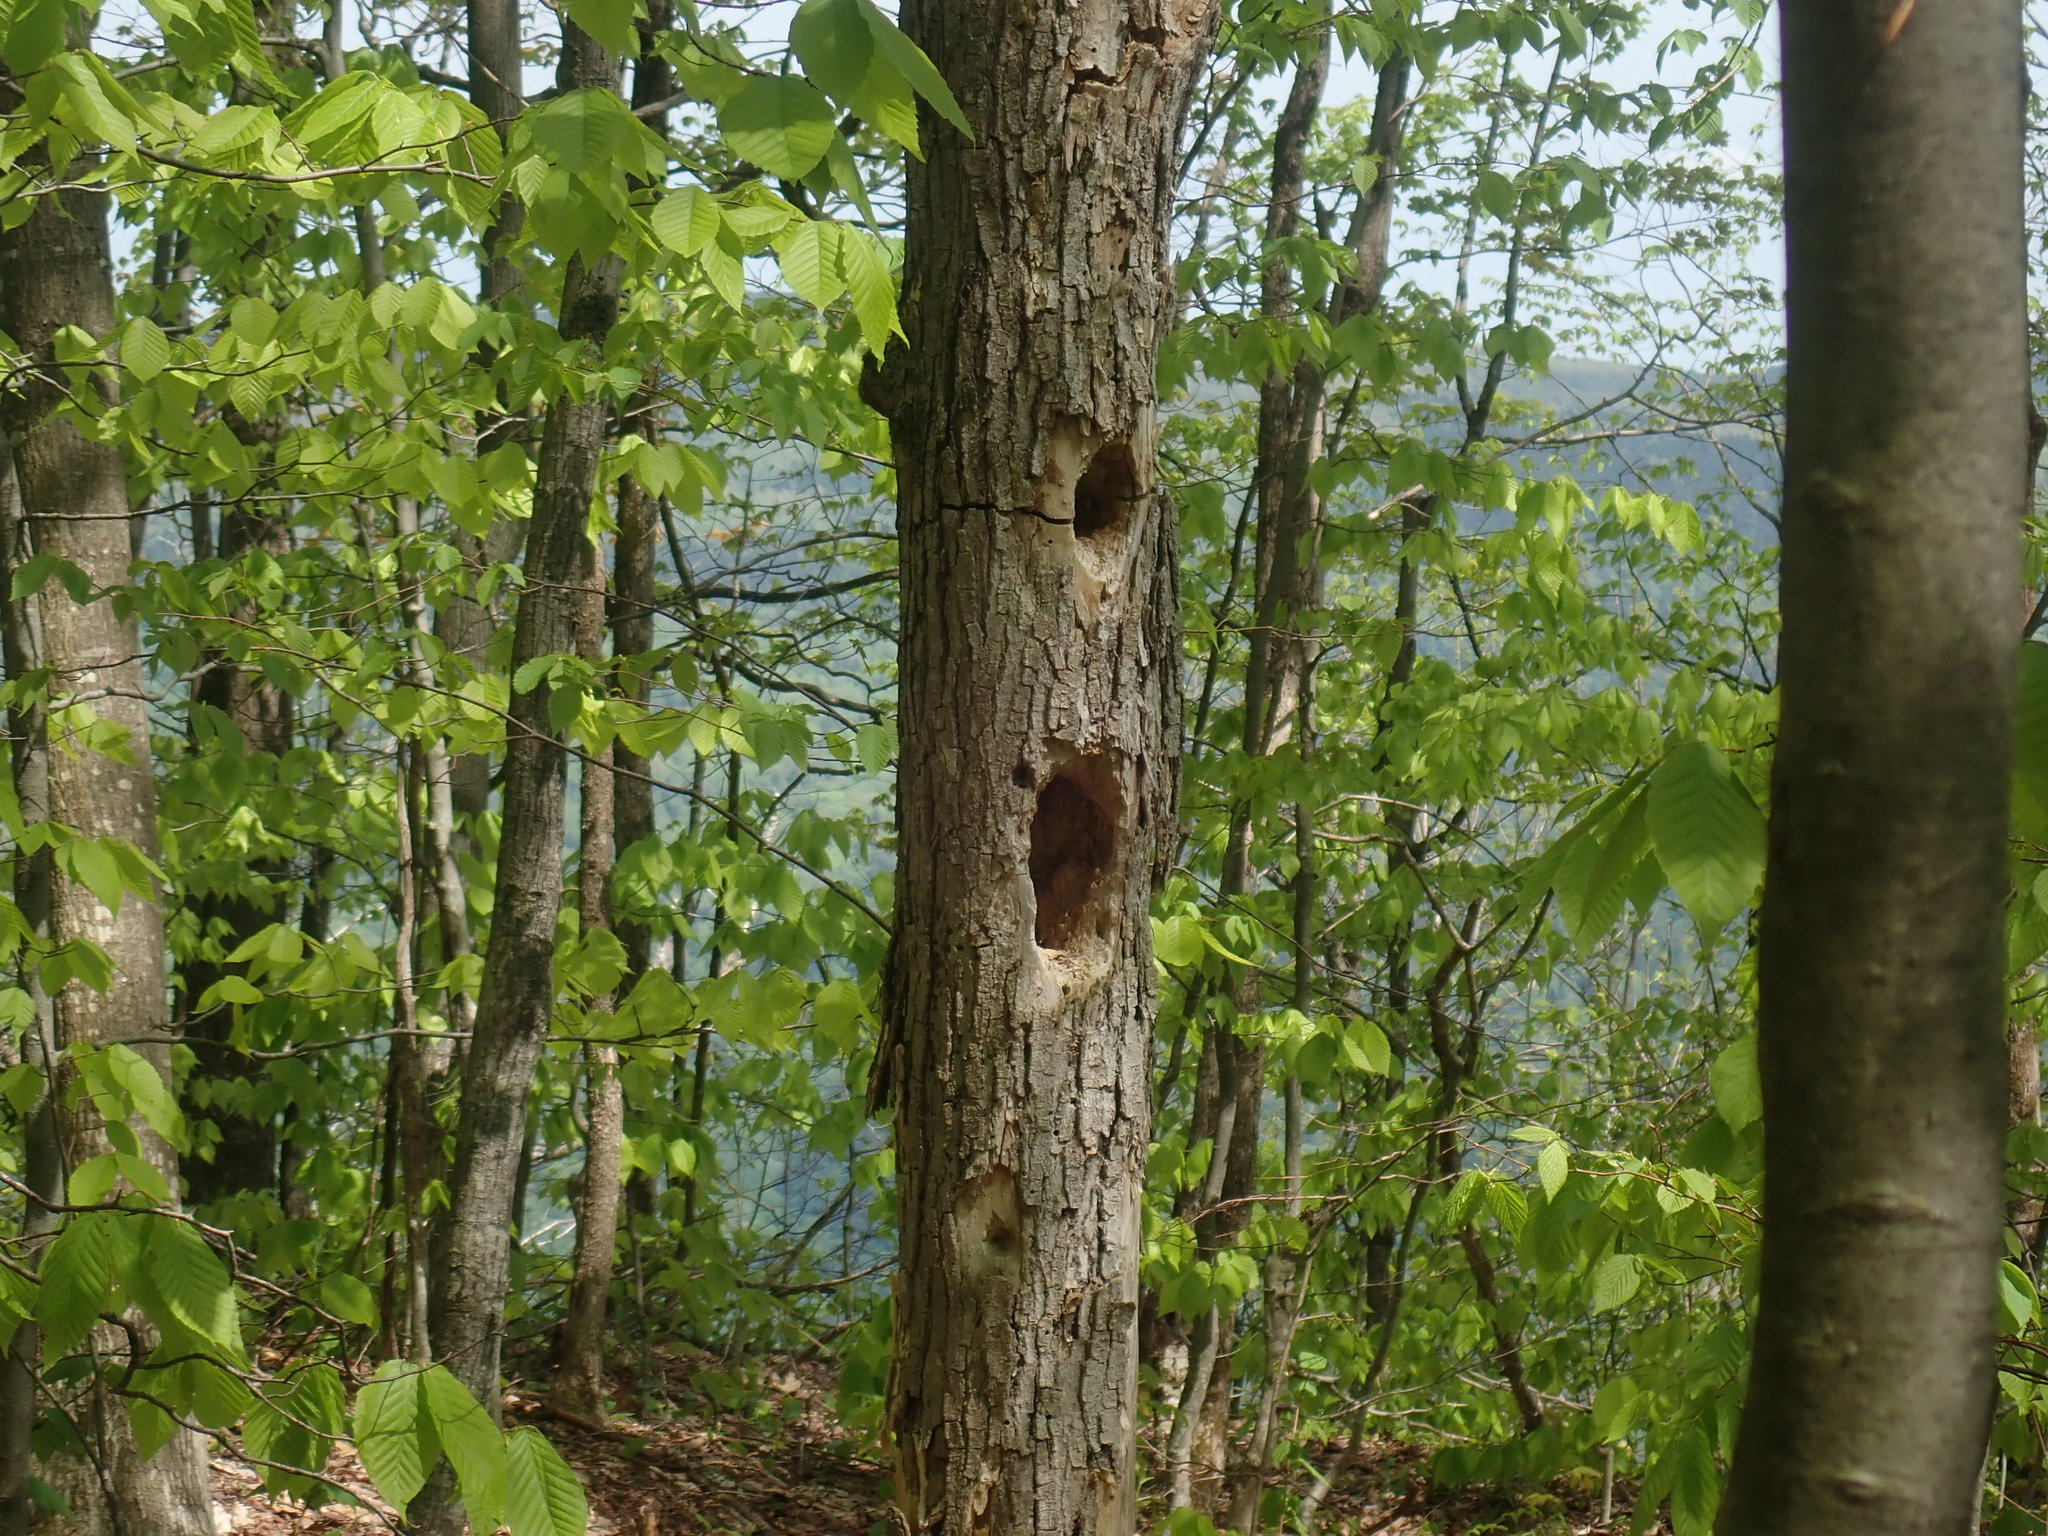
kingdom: Animalia
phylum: Chordata
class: Aves
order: Piciformes
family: Picidae
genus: Dryocopus
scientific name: Dryocopus pileatus
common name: Pileated woodpecker
